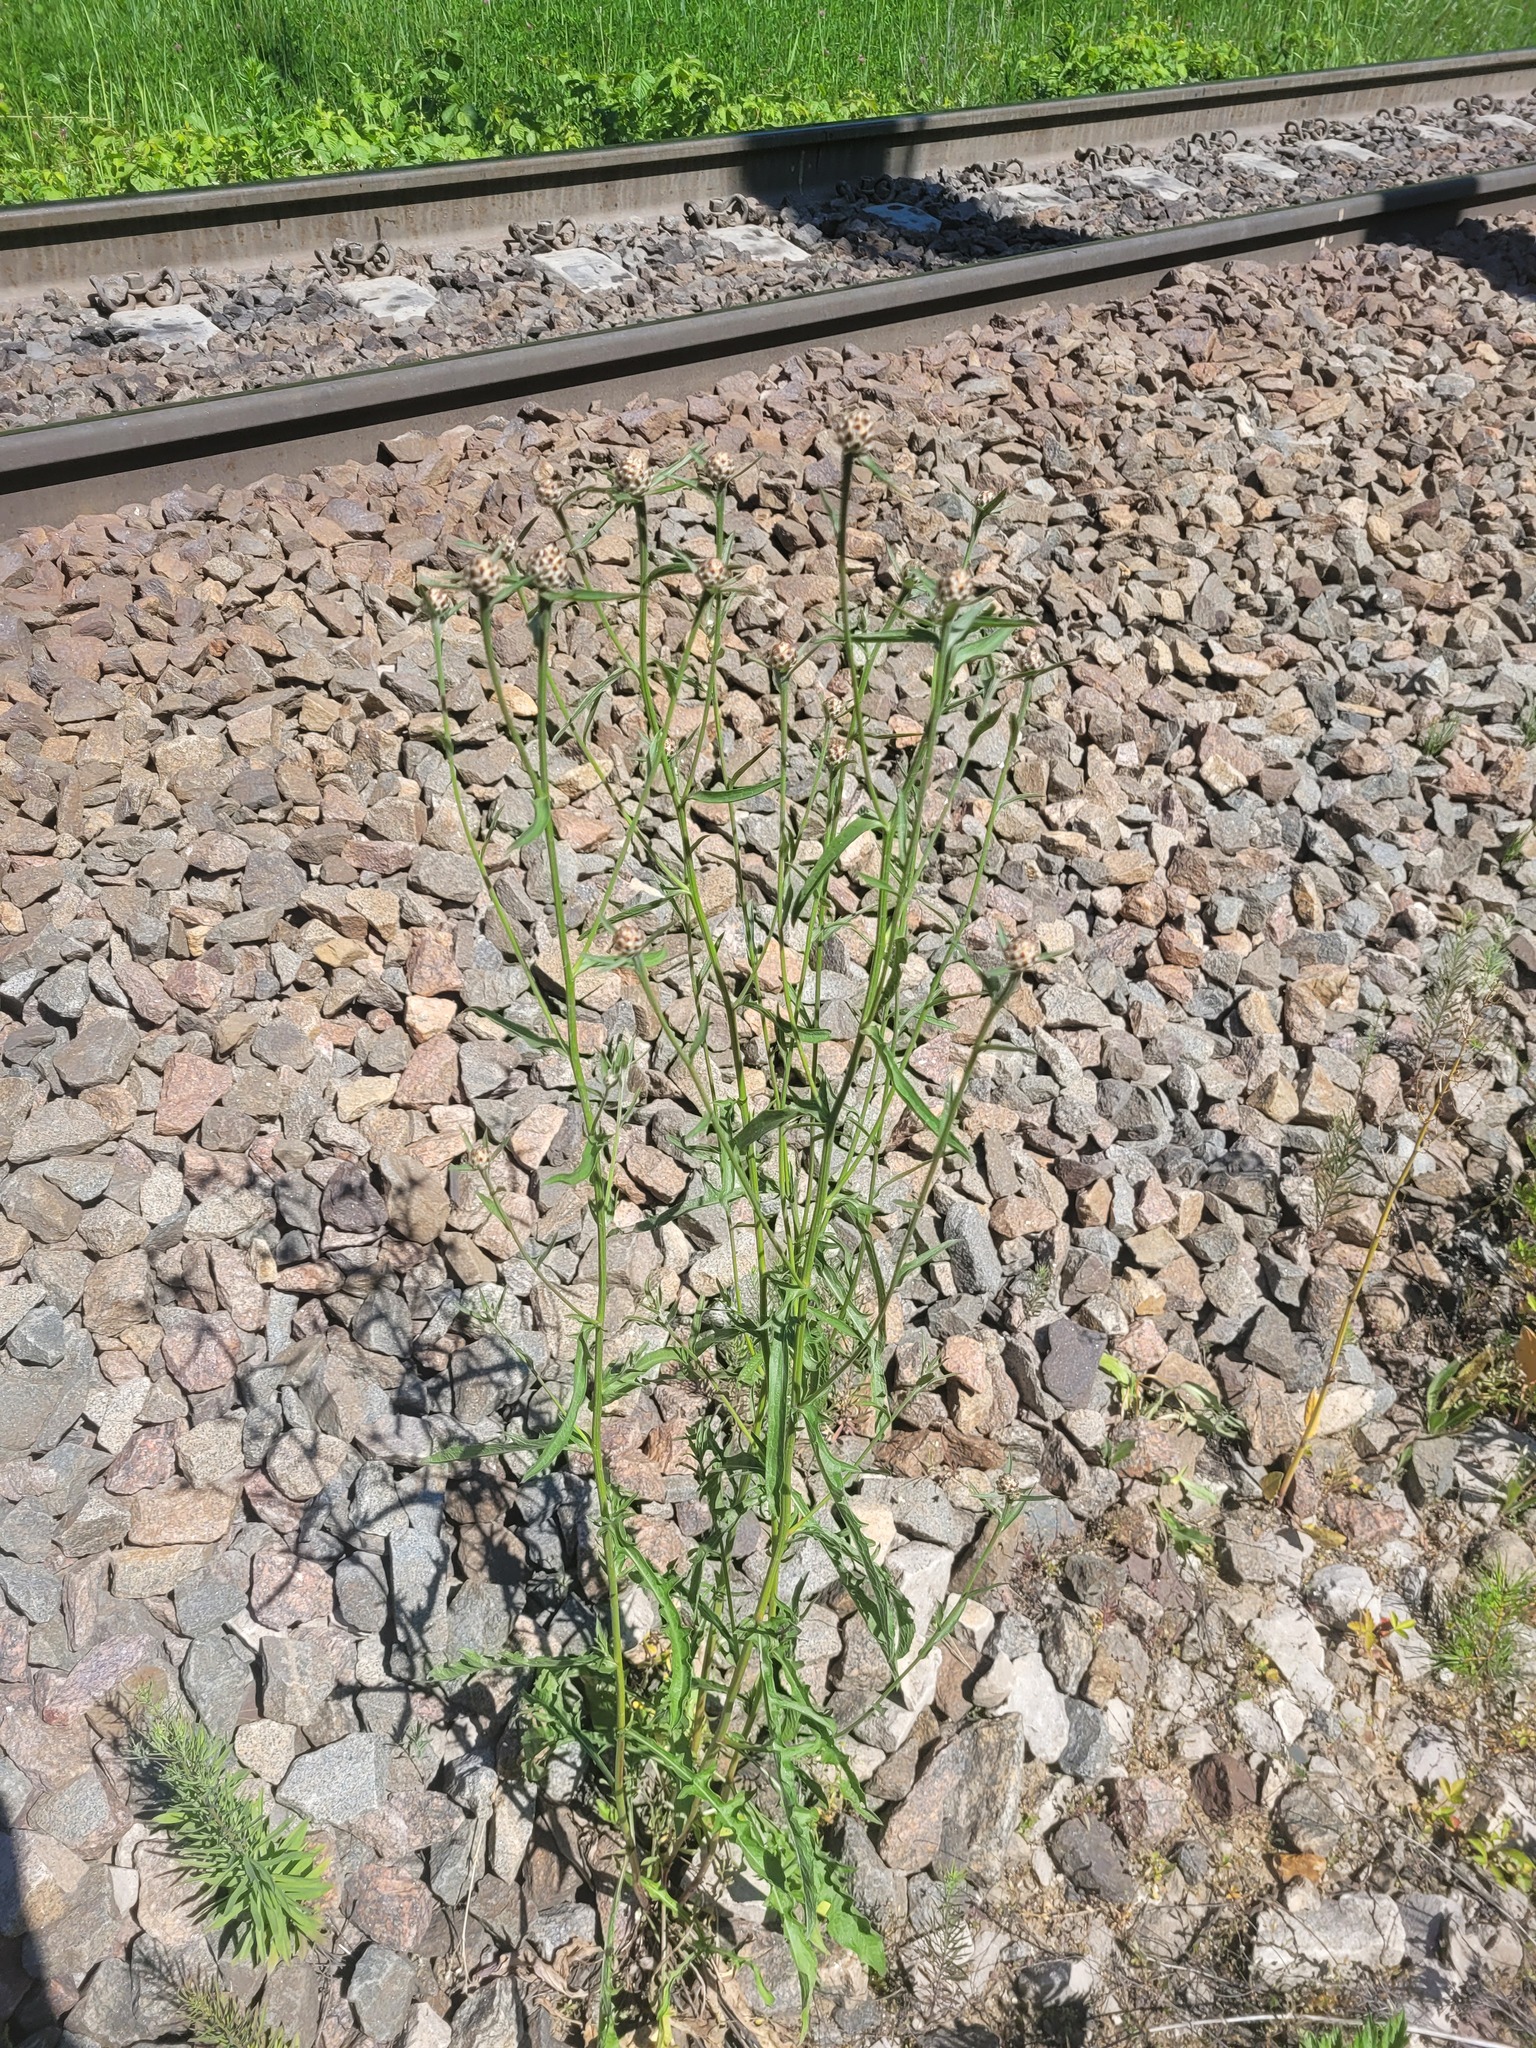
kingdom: Plantae
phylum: Tracheophyta
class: Magnoliopsida
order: Asterales
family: Asteraceae
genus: Centaurea
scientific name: Centaurea jacea
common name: Brown knapweed
